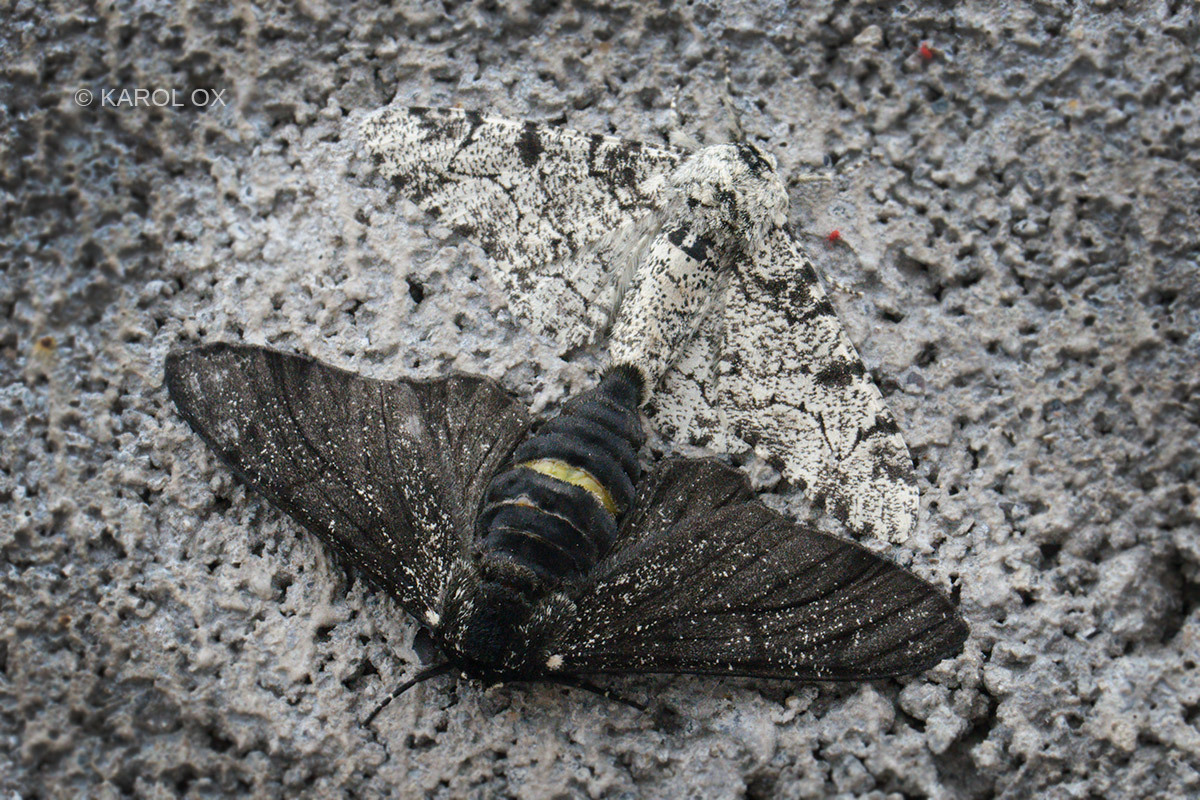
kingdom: Animalia
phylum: Arthropoda
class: Insecta
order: Lepidoptera
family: Geometridae
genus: Biston
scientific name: Biston betularia
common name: Peppered moth
